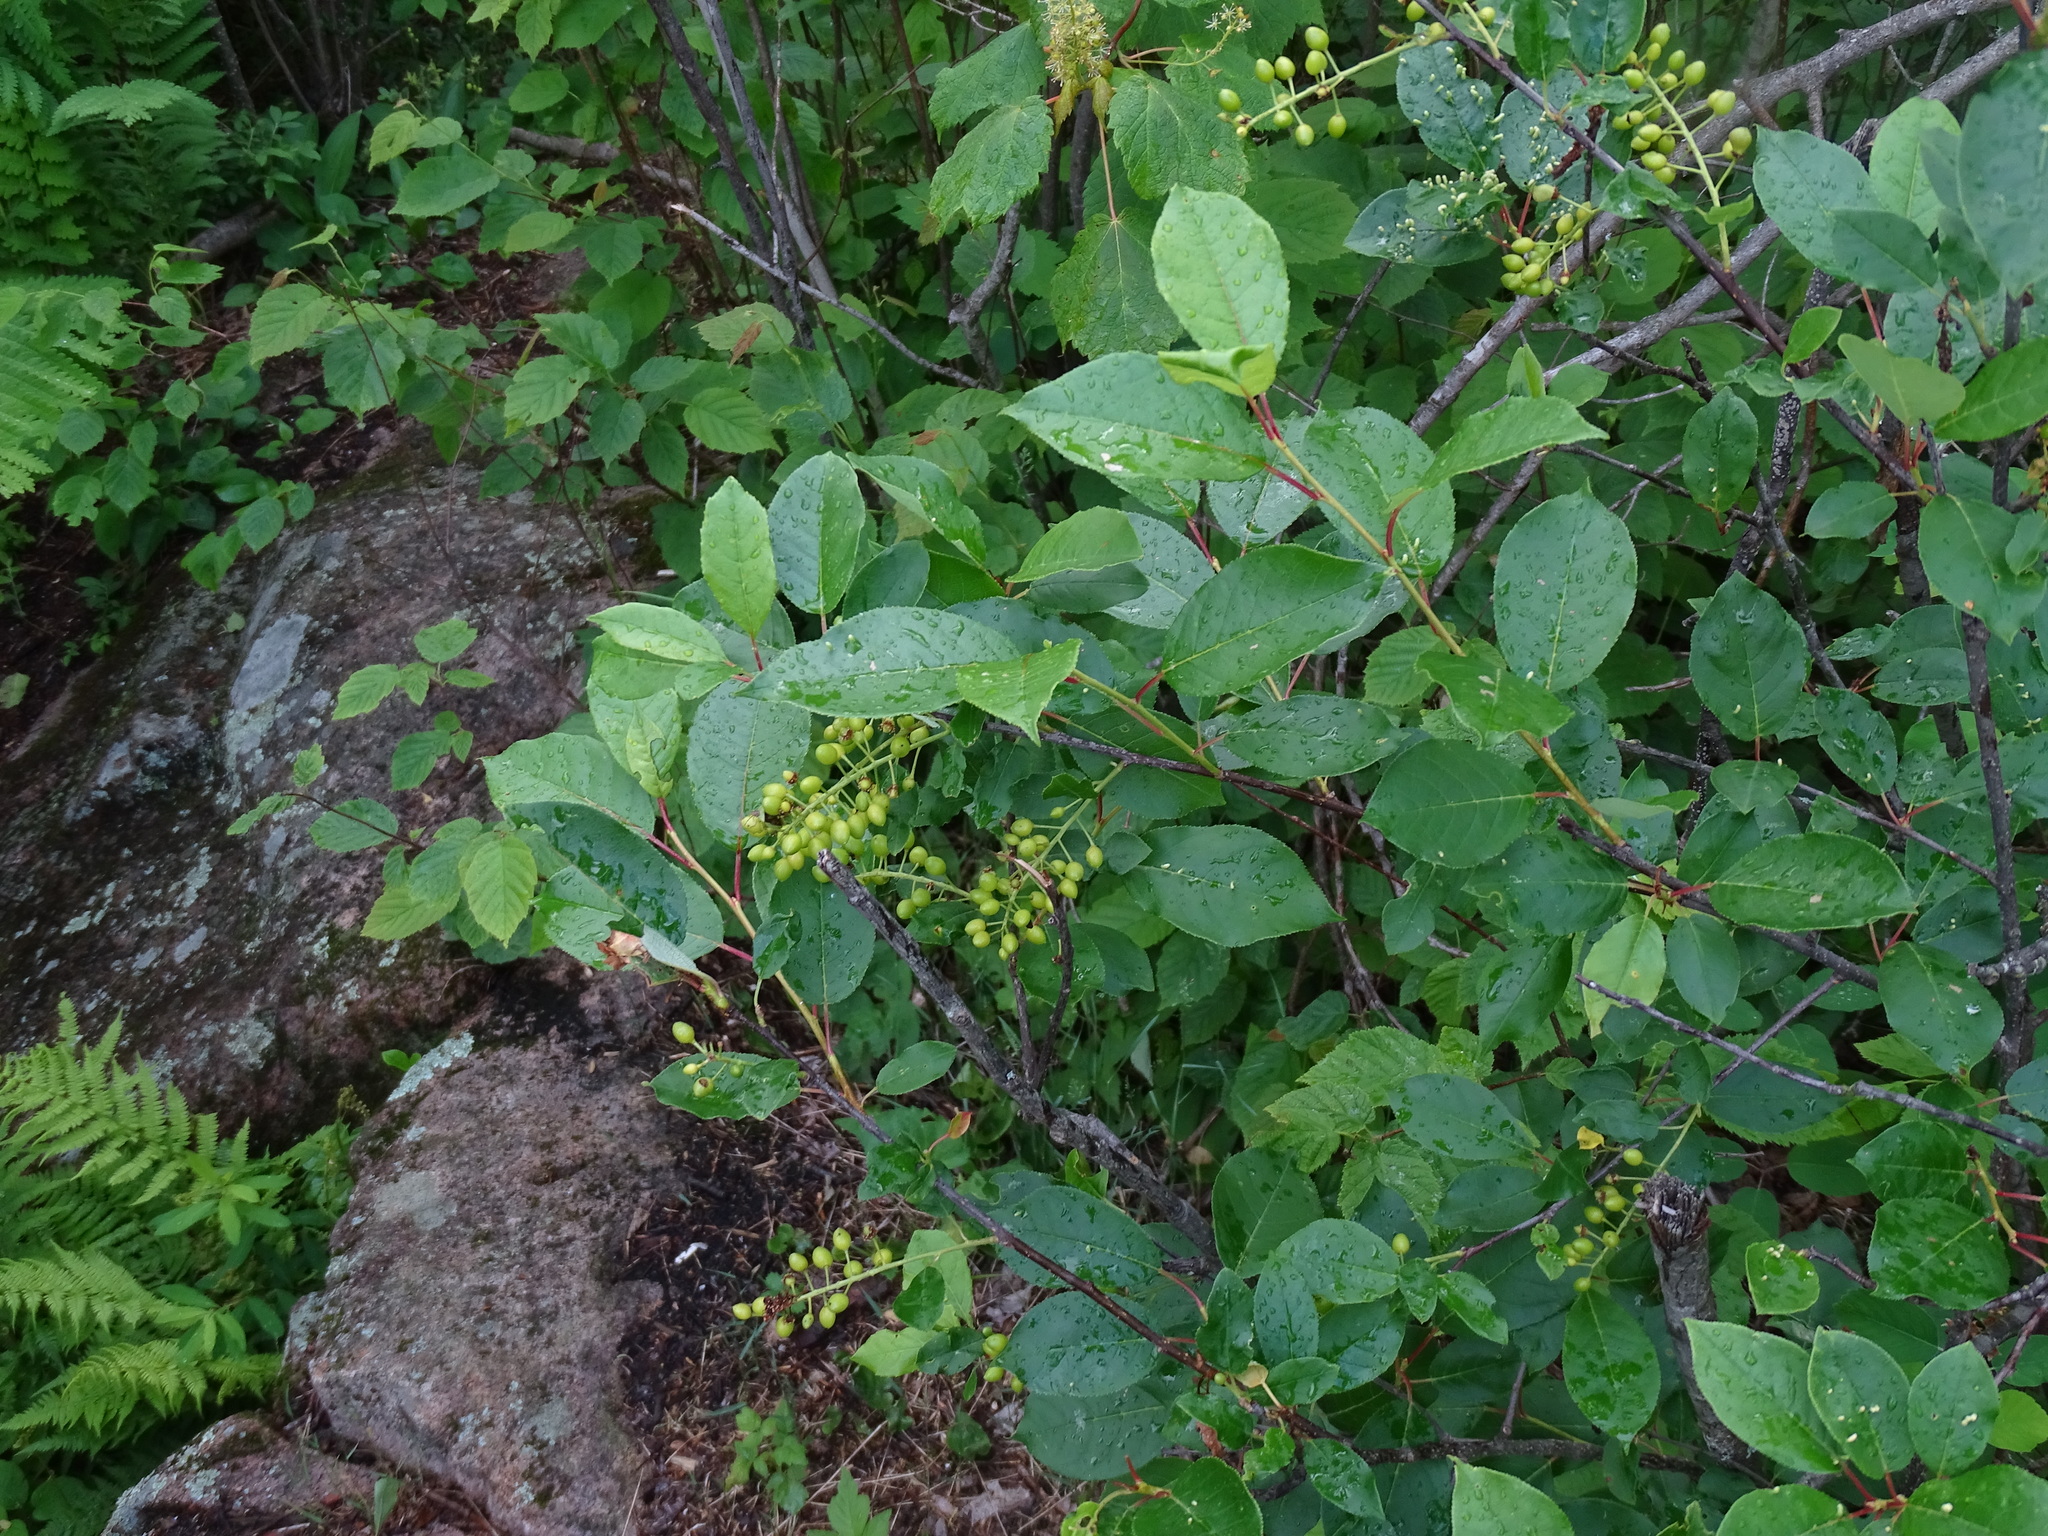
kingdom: Plantae
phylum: Tracheophyta
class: Magnoliopsida
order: Rosales
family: Rosaceae
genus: Prunus
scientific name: Prunus virginiana
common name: Chokecherry
